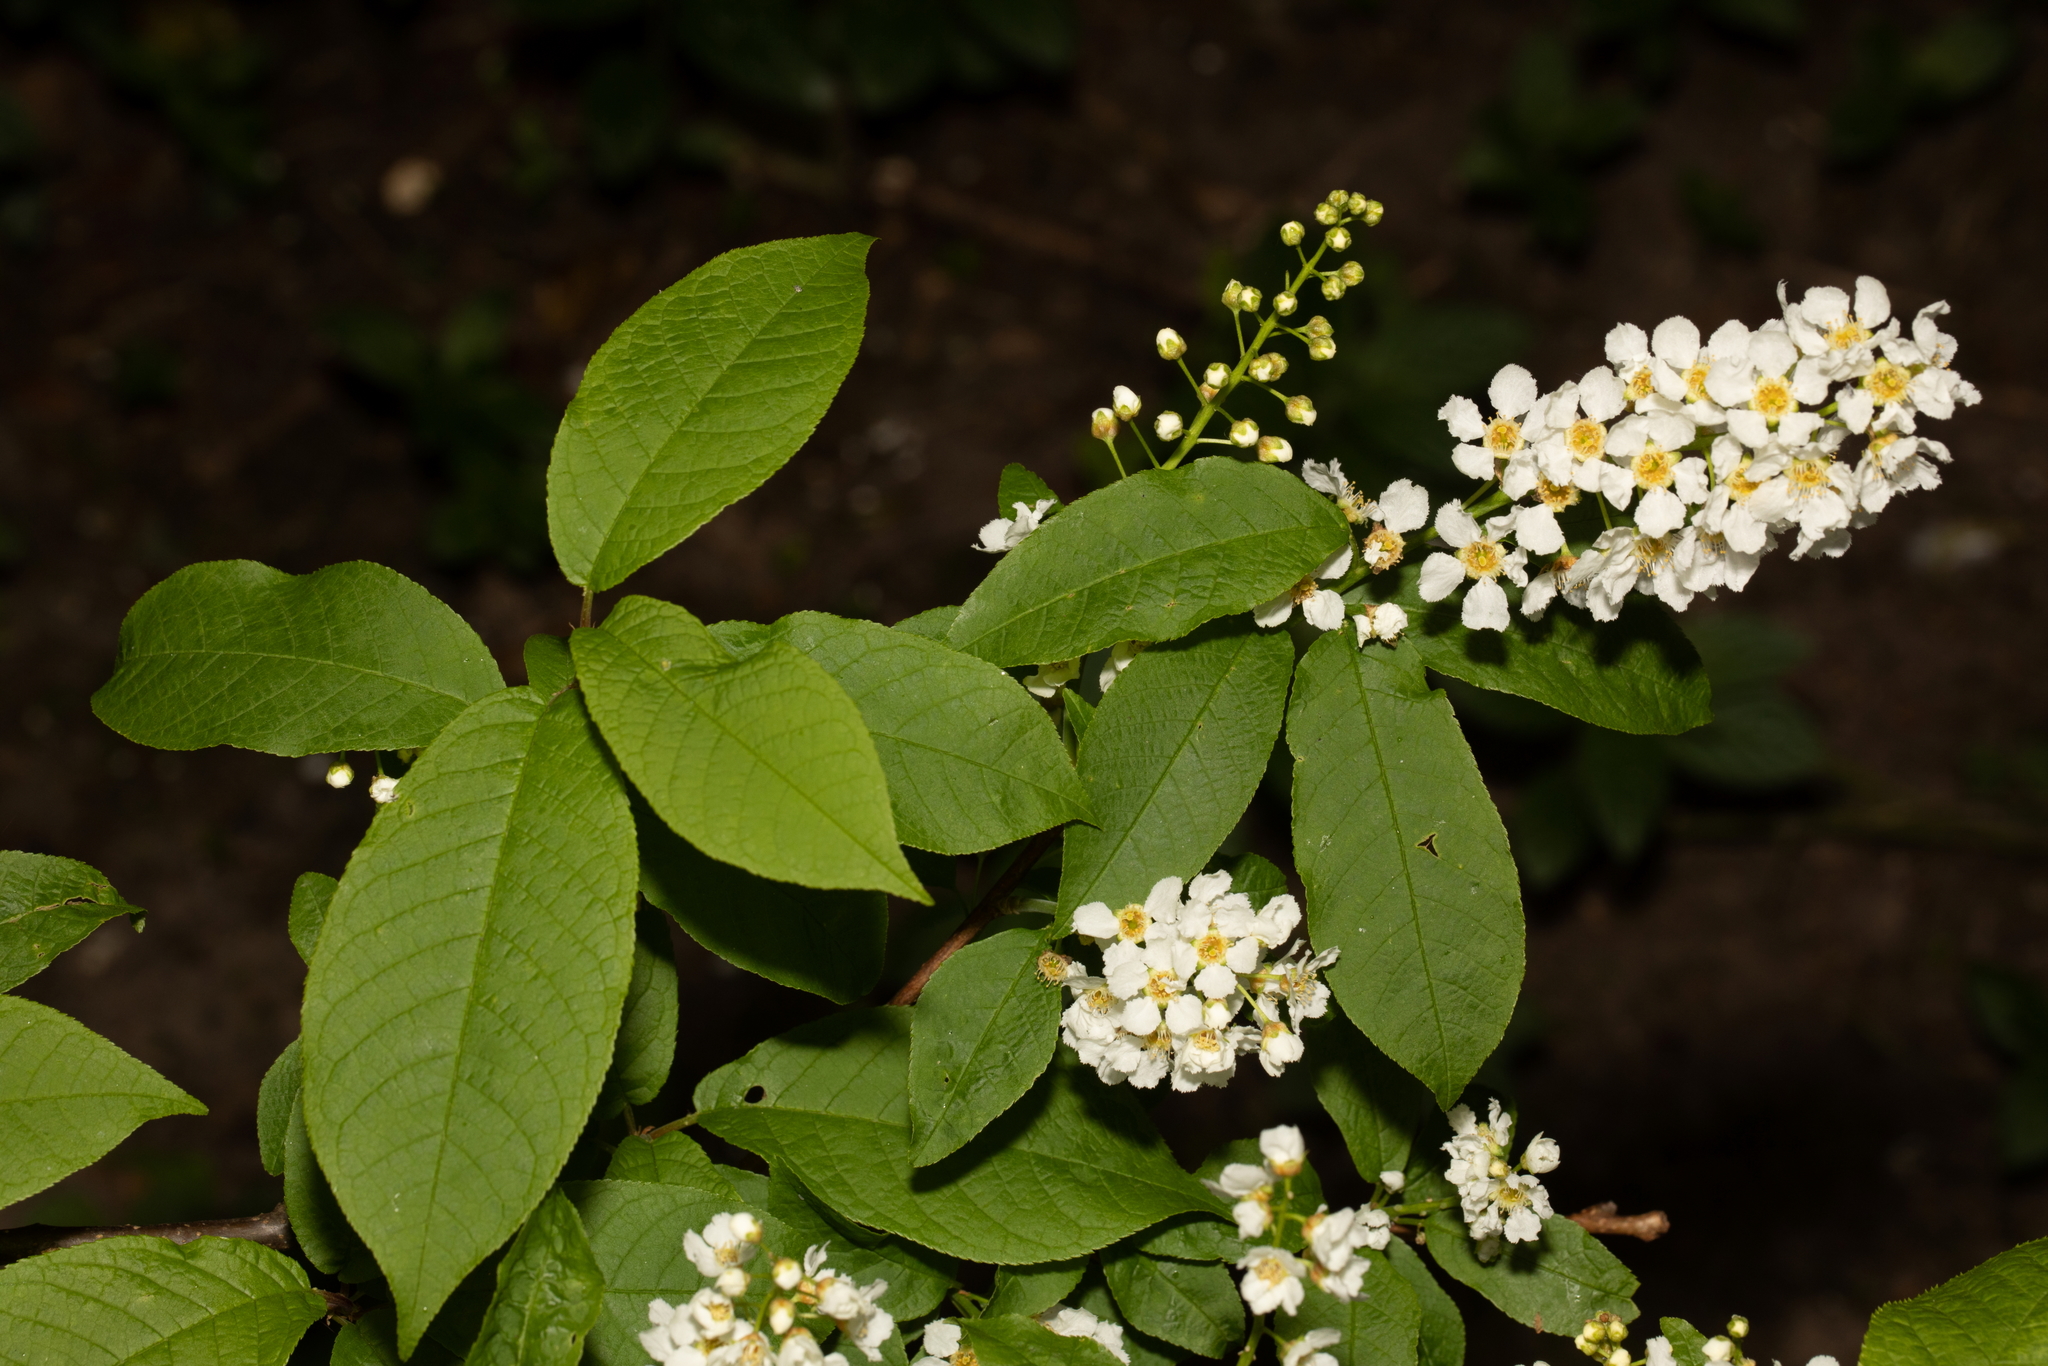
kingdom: Plantae
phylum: Tracheophyta
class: Magnoliopsida
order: Rosales
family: Rosaceae
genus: Prunus
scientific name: Prunus padus
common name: Bird cherry
